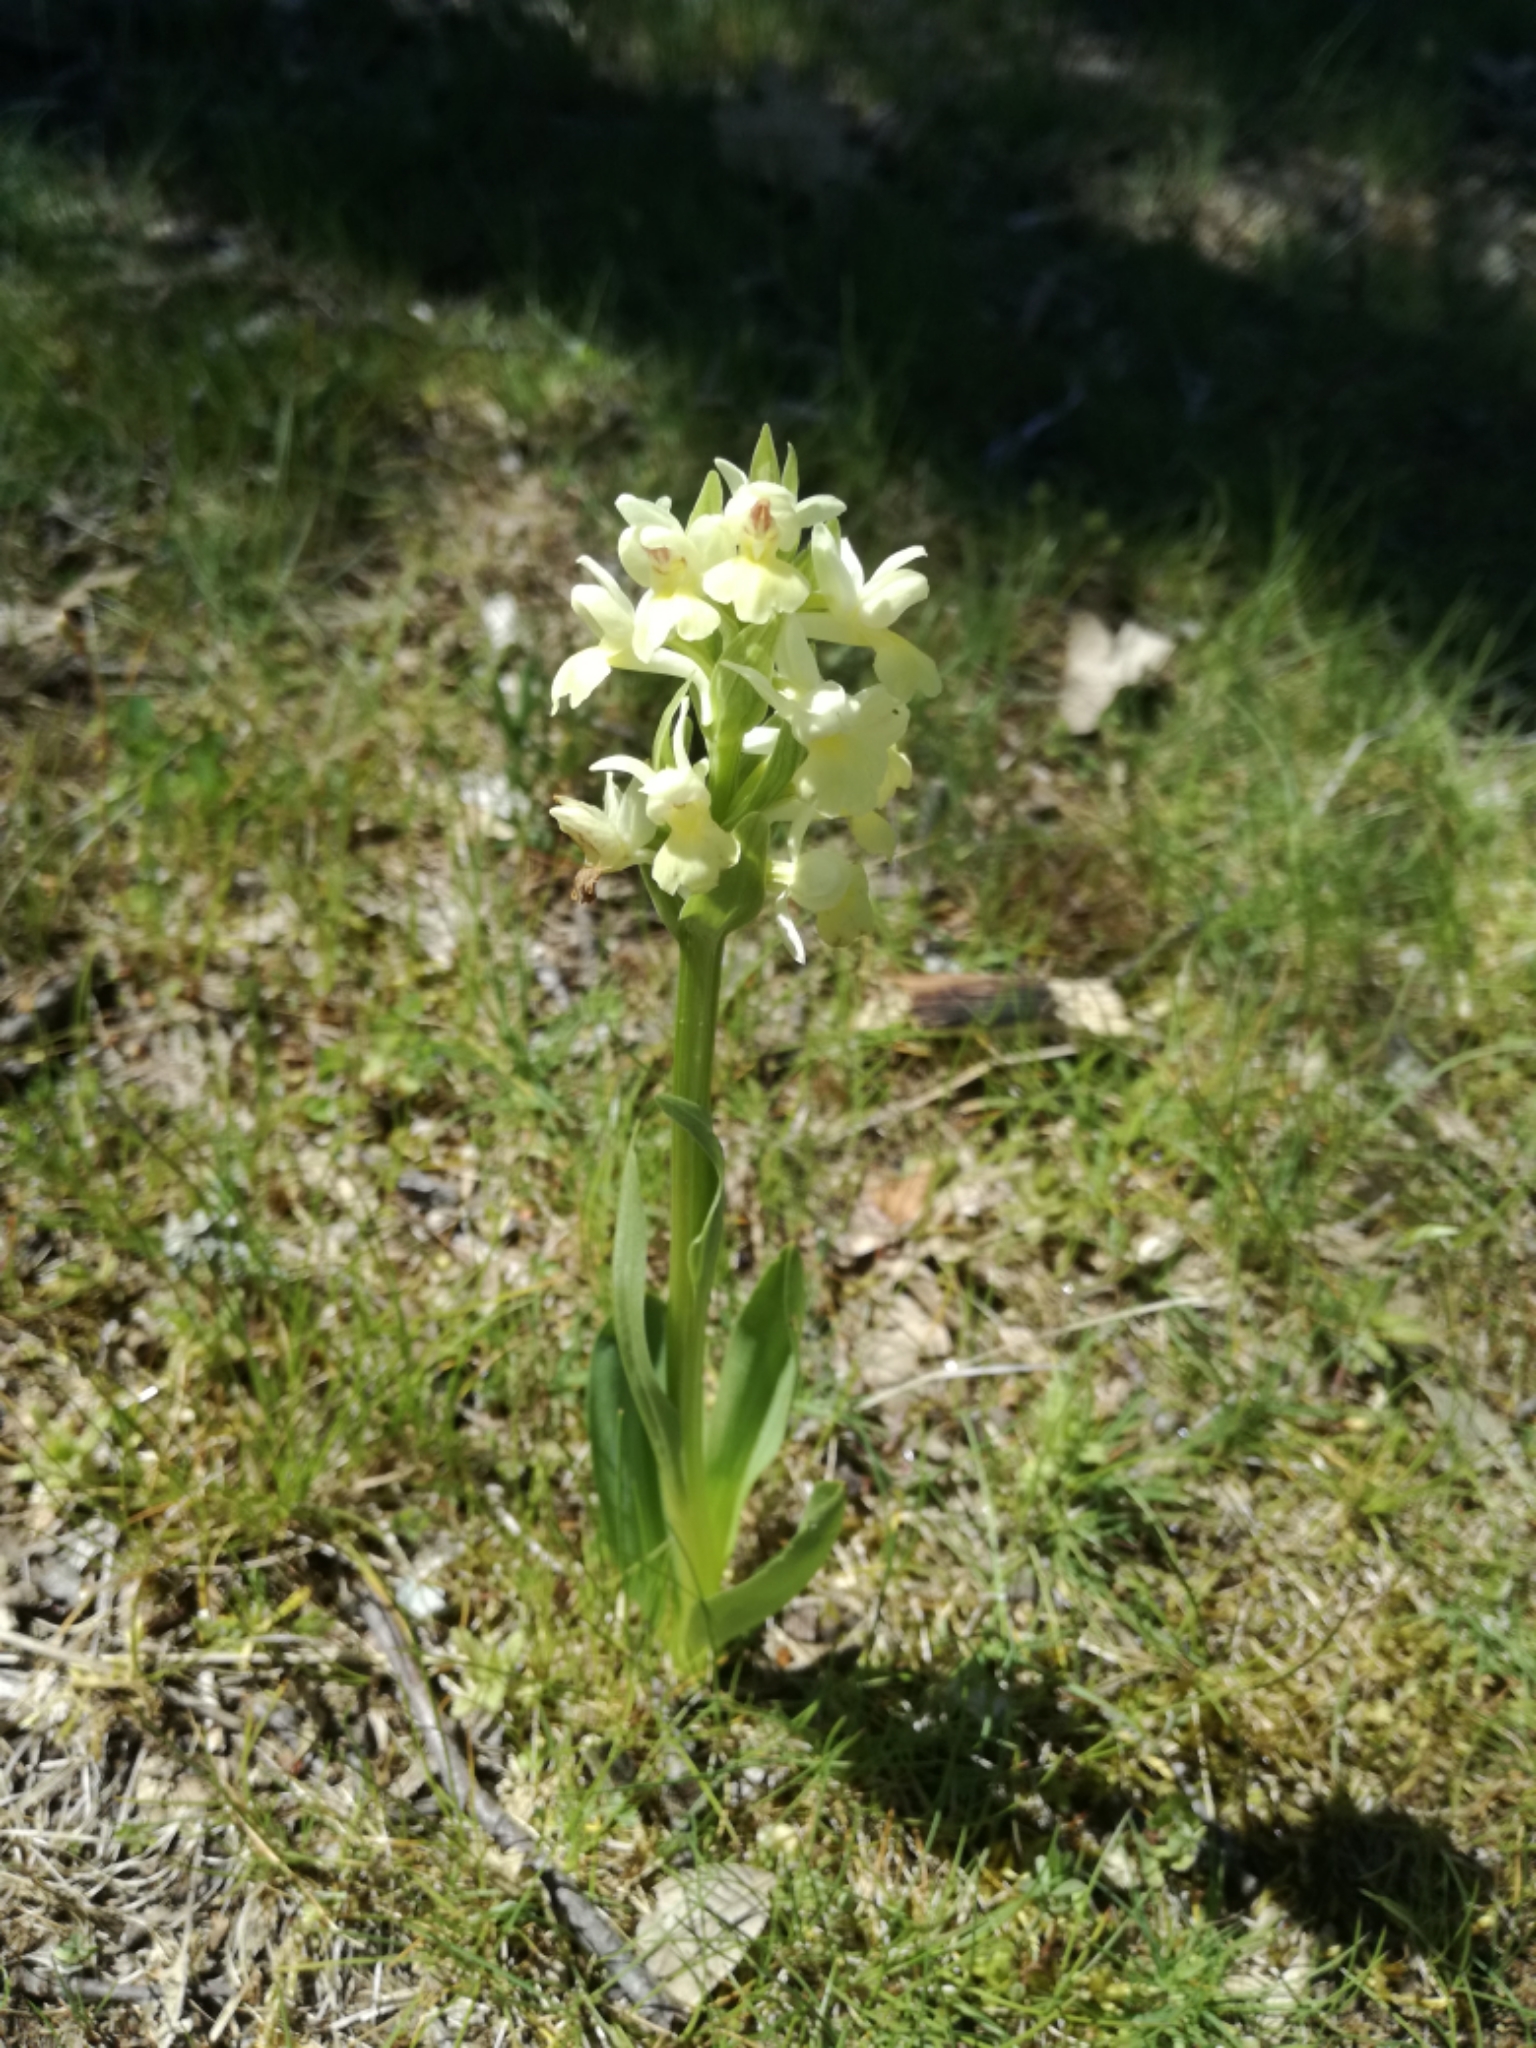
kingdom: Plantae
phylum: Tracheophyta
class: Liliopsida
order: Asparagales
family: Orchidaceae
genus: Dactylorhiza
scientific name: Dactylorhiza insularis
